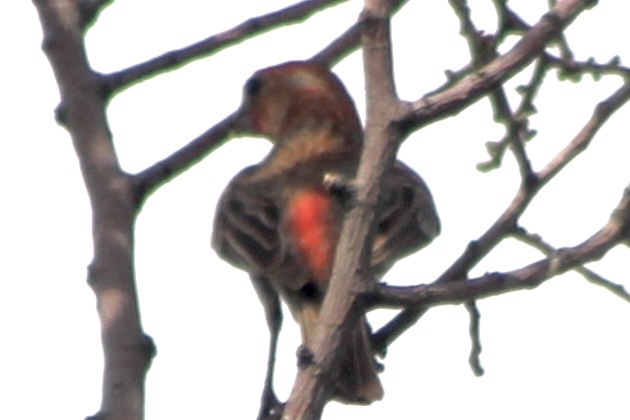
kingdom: Animalia
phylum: Chordata
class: Aves
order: Passeriformes
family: Fringillidae
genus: Haemorhous
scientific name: Haemorhous mexicanus
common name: House finch
